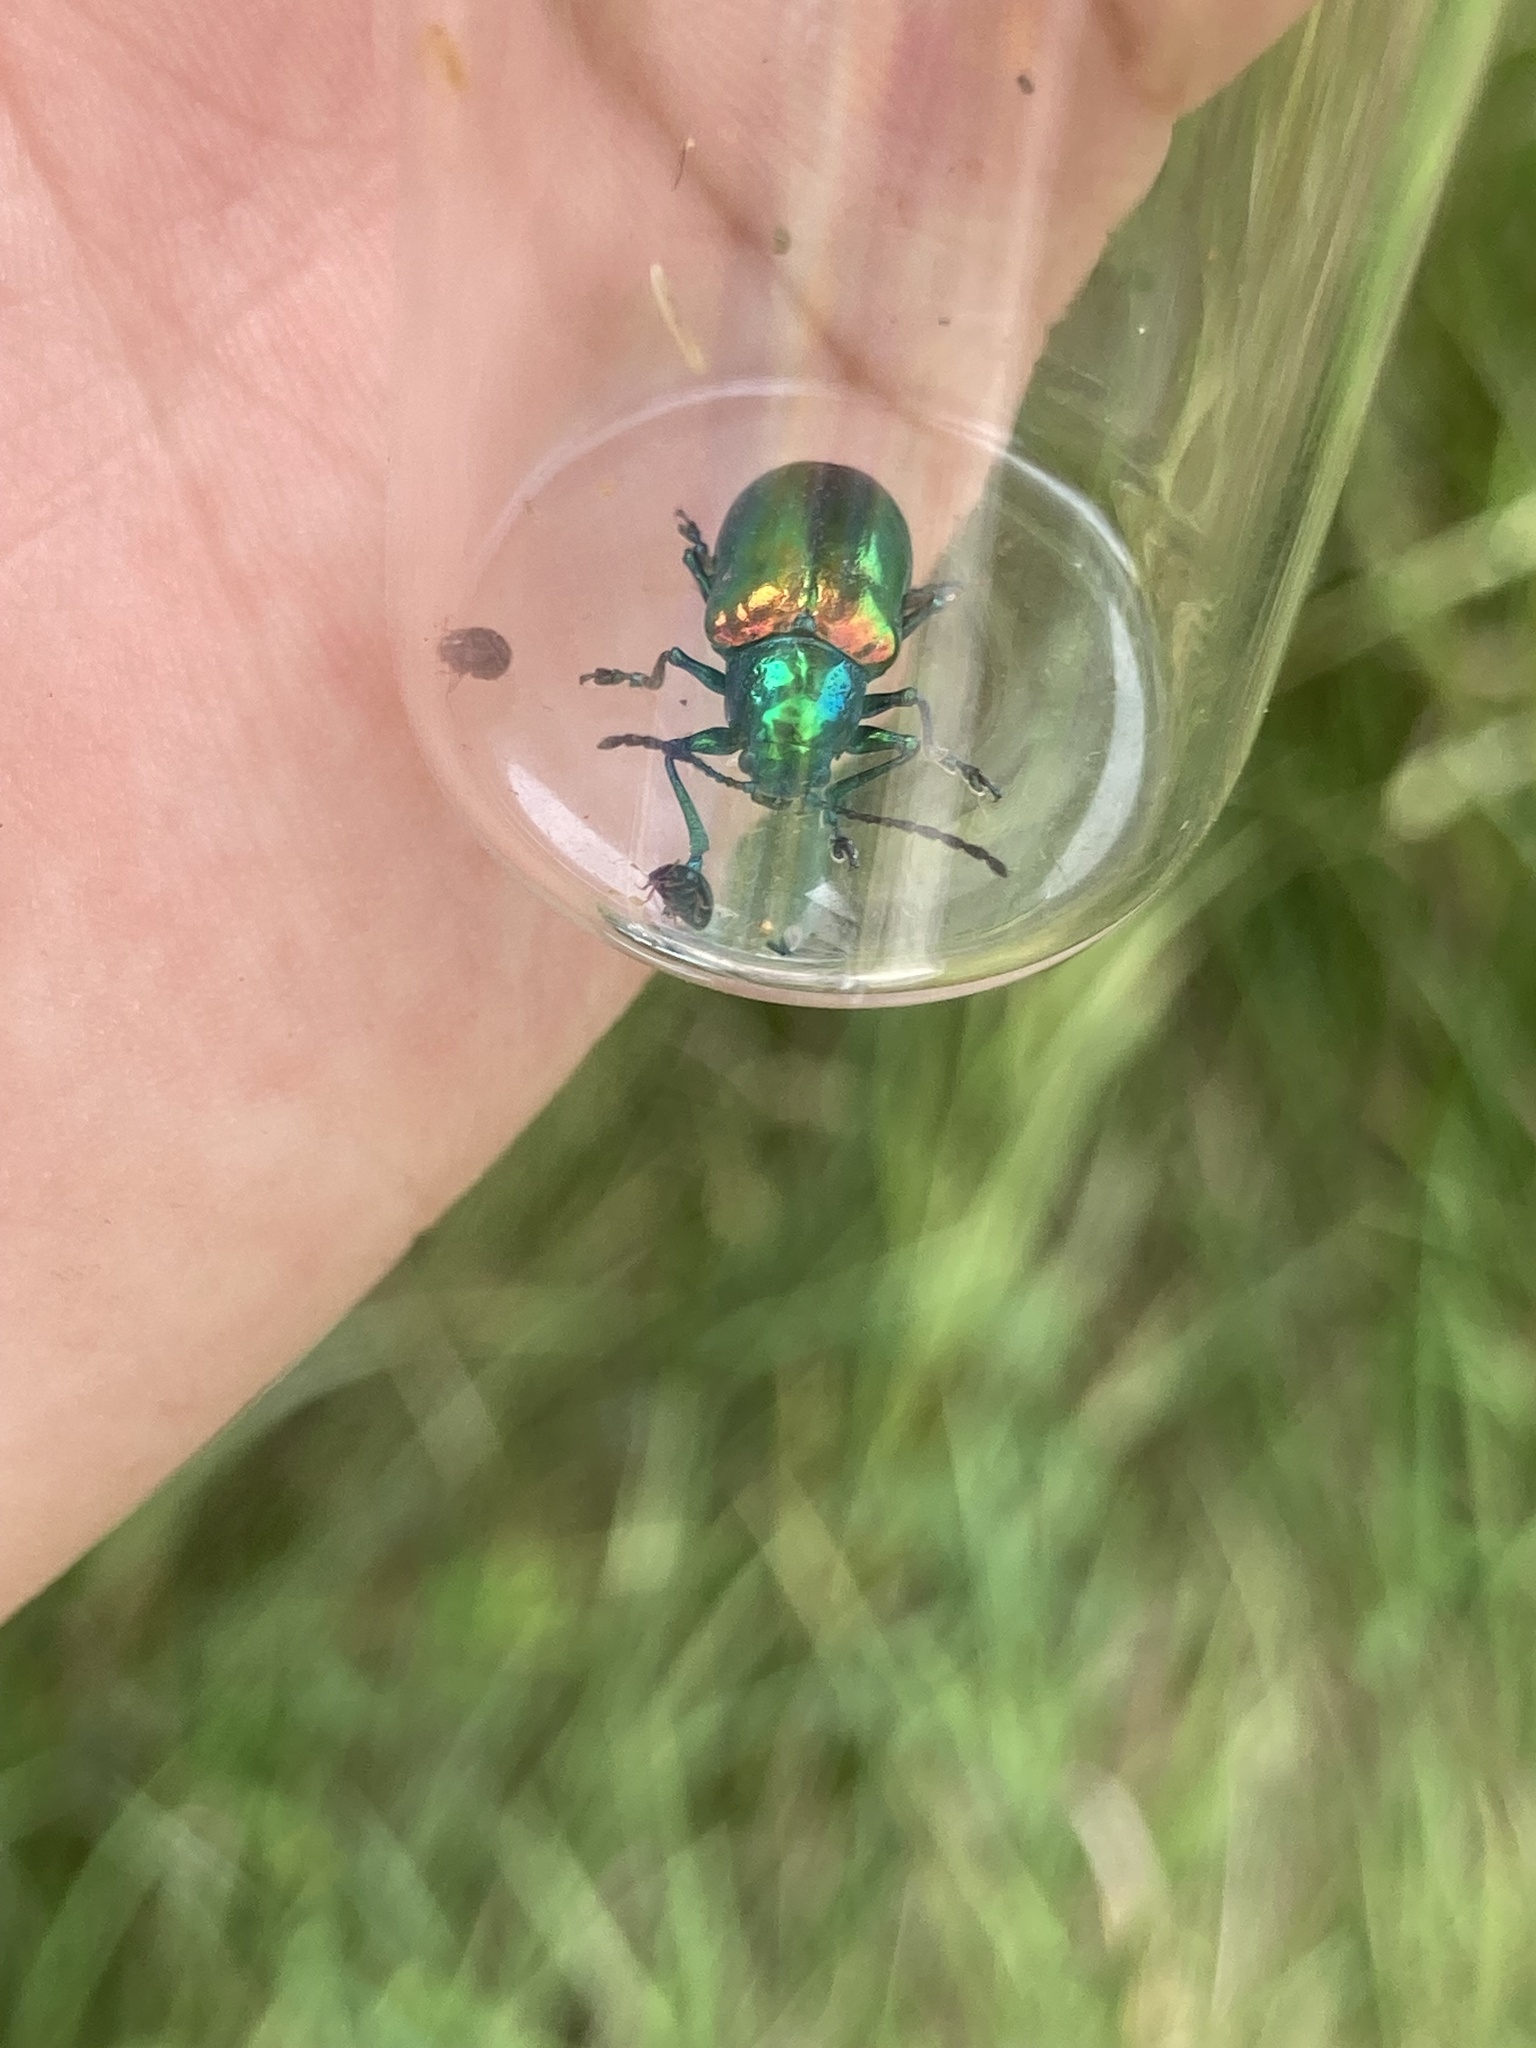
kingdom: Animalia
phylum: Arthropoda
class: Insecta
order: Coleoptera
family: Chrysomelidae
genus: Chrysochus
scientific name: Chrysochus auratus
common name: Dogbane leaf beetle
